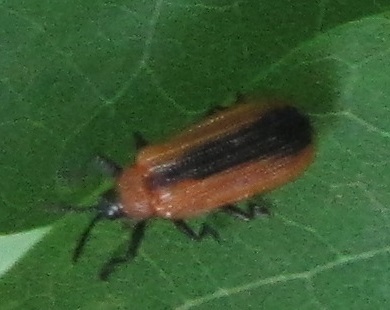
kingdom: Animalia
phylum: Arthropoda
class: Insecta
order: Coleoptera
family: Chrysomelidae
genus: Odontota
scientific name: Odontota dorsalis
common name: Locust leaf-miner beetle
